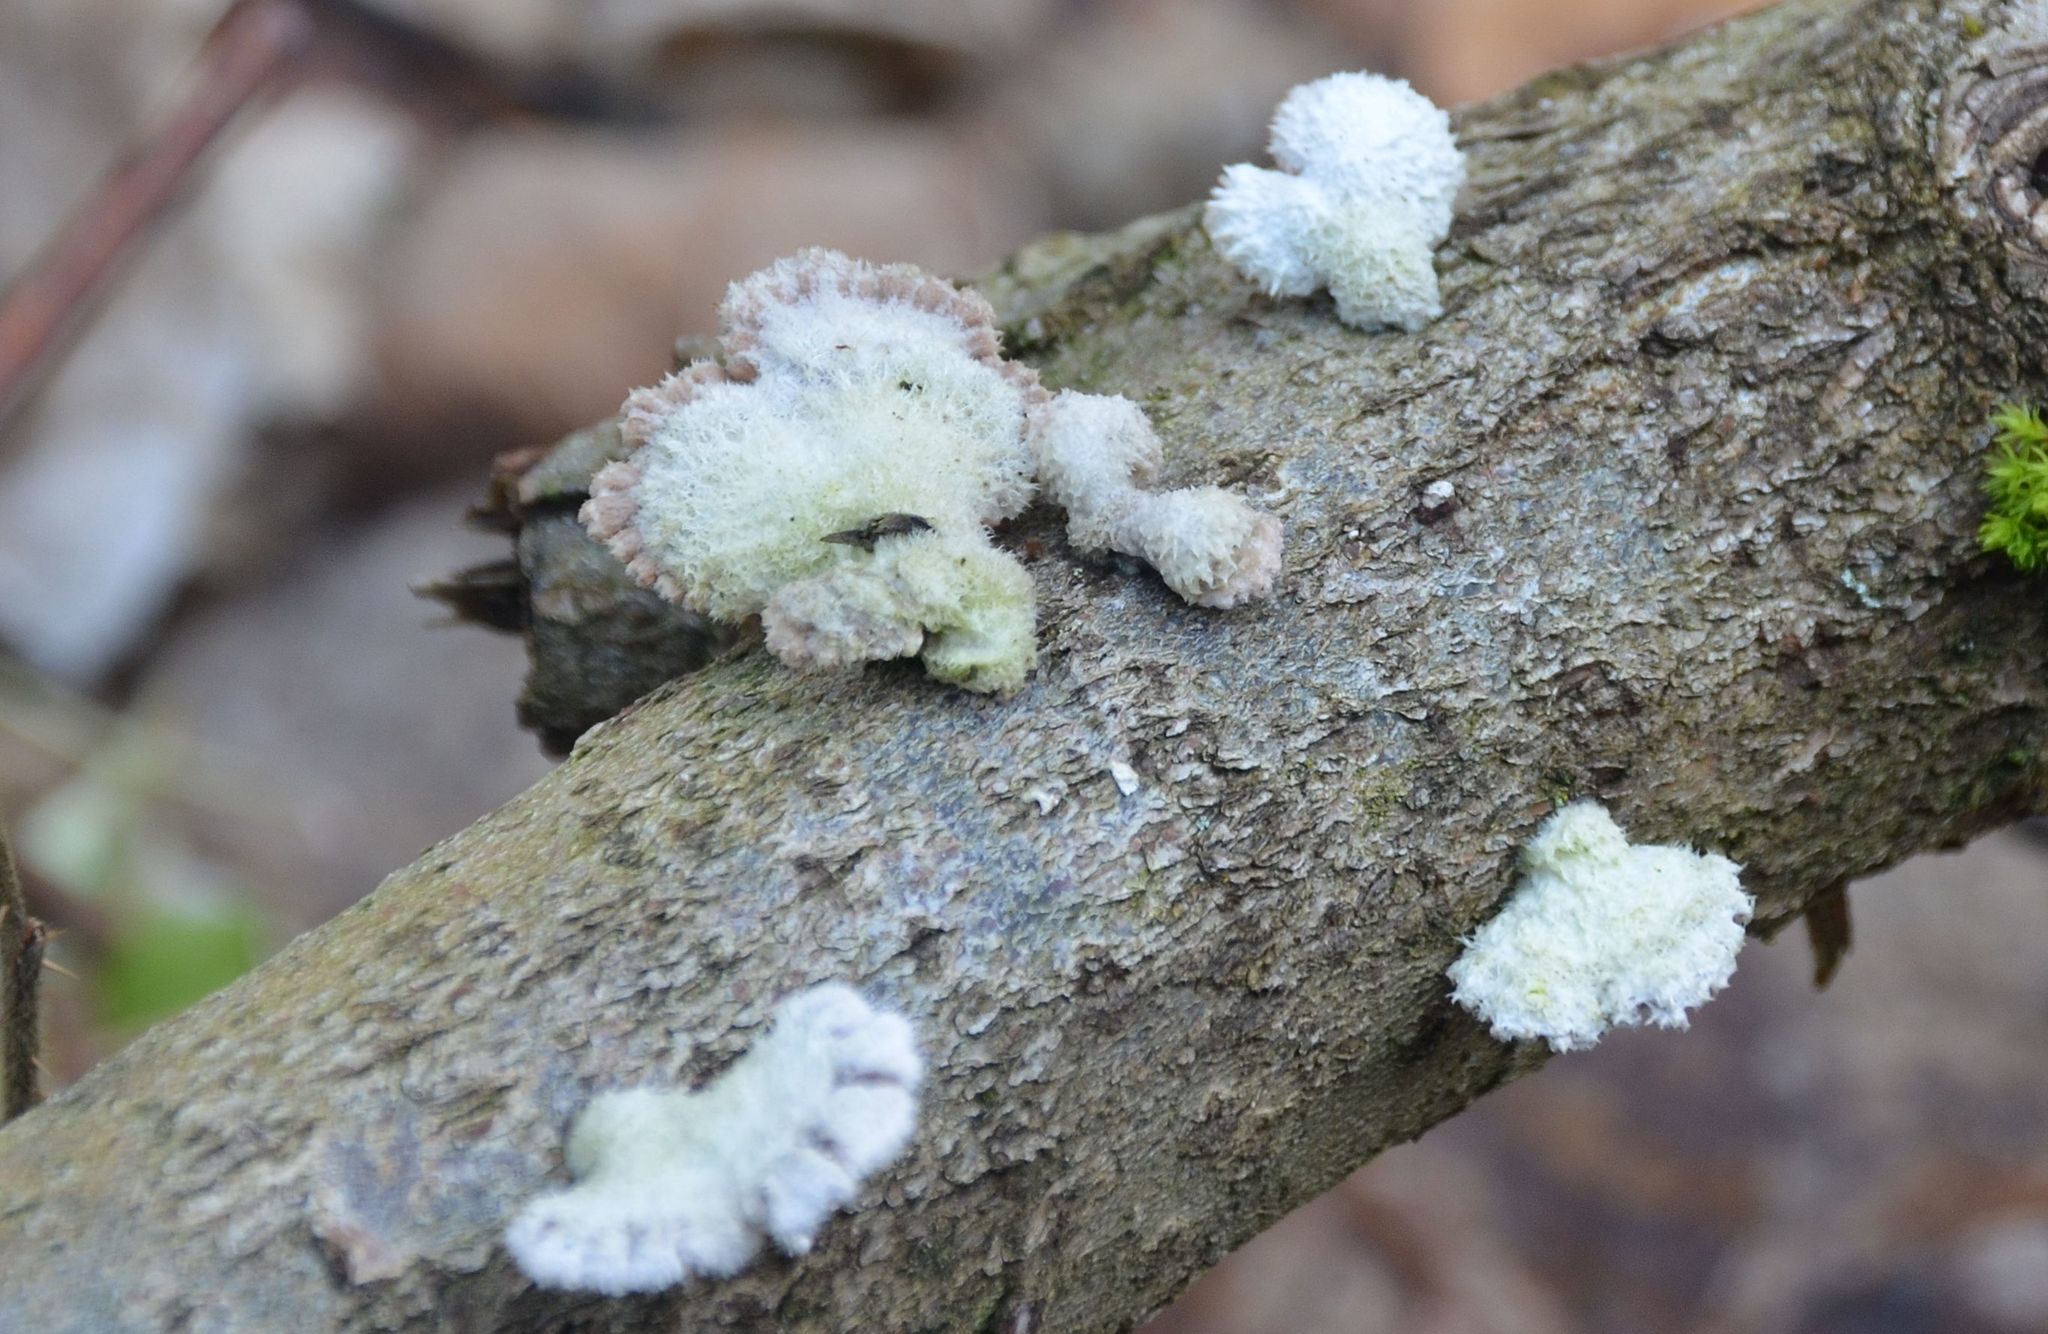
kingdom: Fungi
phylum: Basidiomycota
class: Agaricomycetes
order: Agaricales
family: Schizophyllaceae
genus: Schizophyllum
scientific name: Schizophyllum commune
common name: Common porecrust
